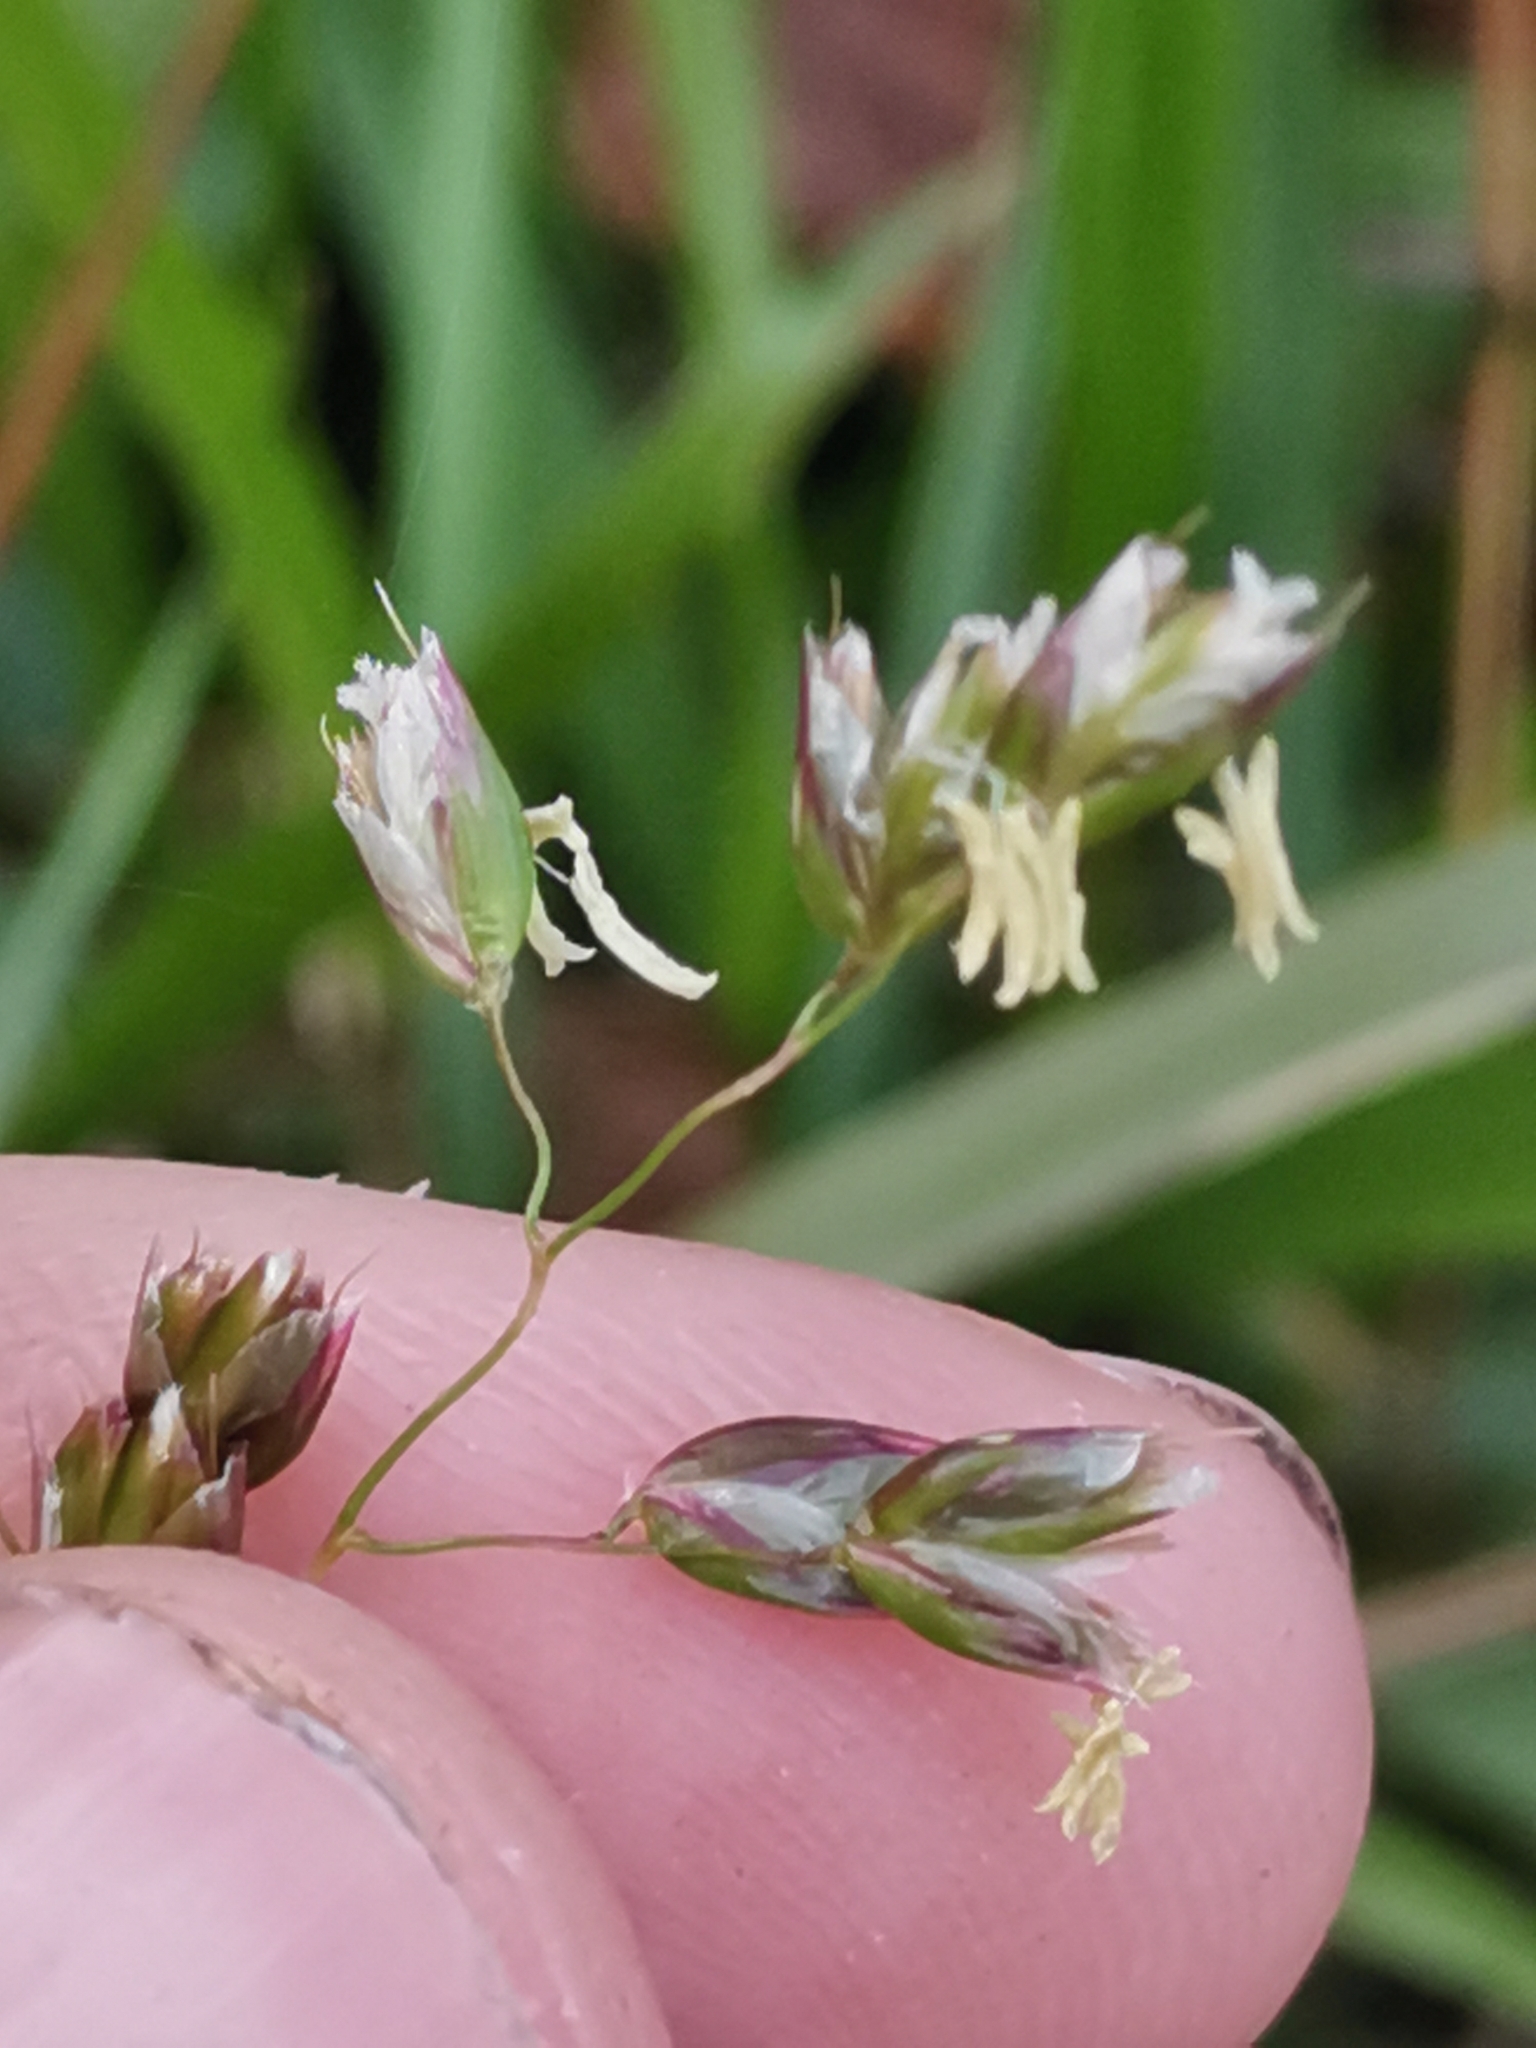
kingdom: Plantae
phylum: Tracheophyta
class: Liliopsida
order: Poales
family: Poaceae
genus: Anthoxanthum
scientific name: Anthoxanthum australe
